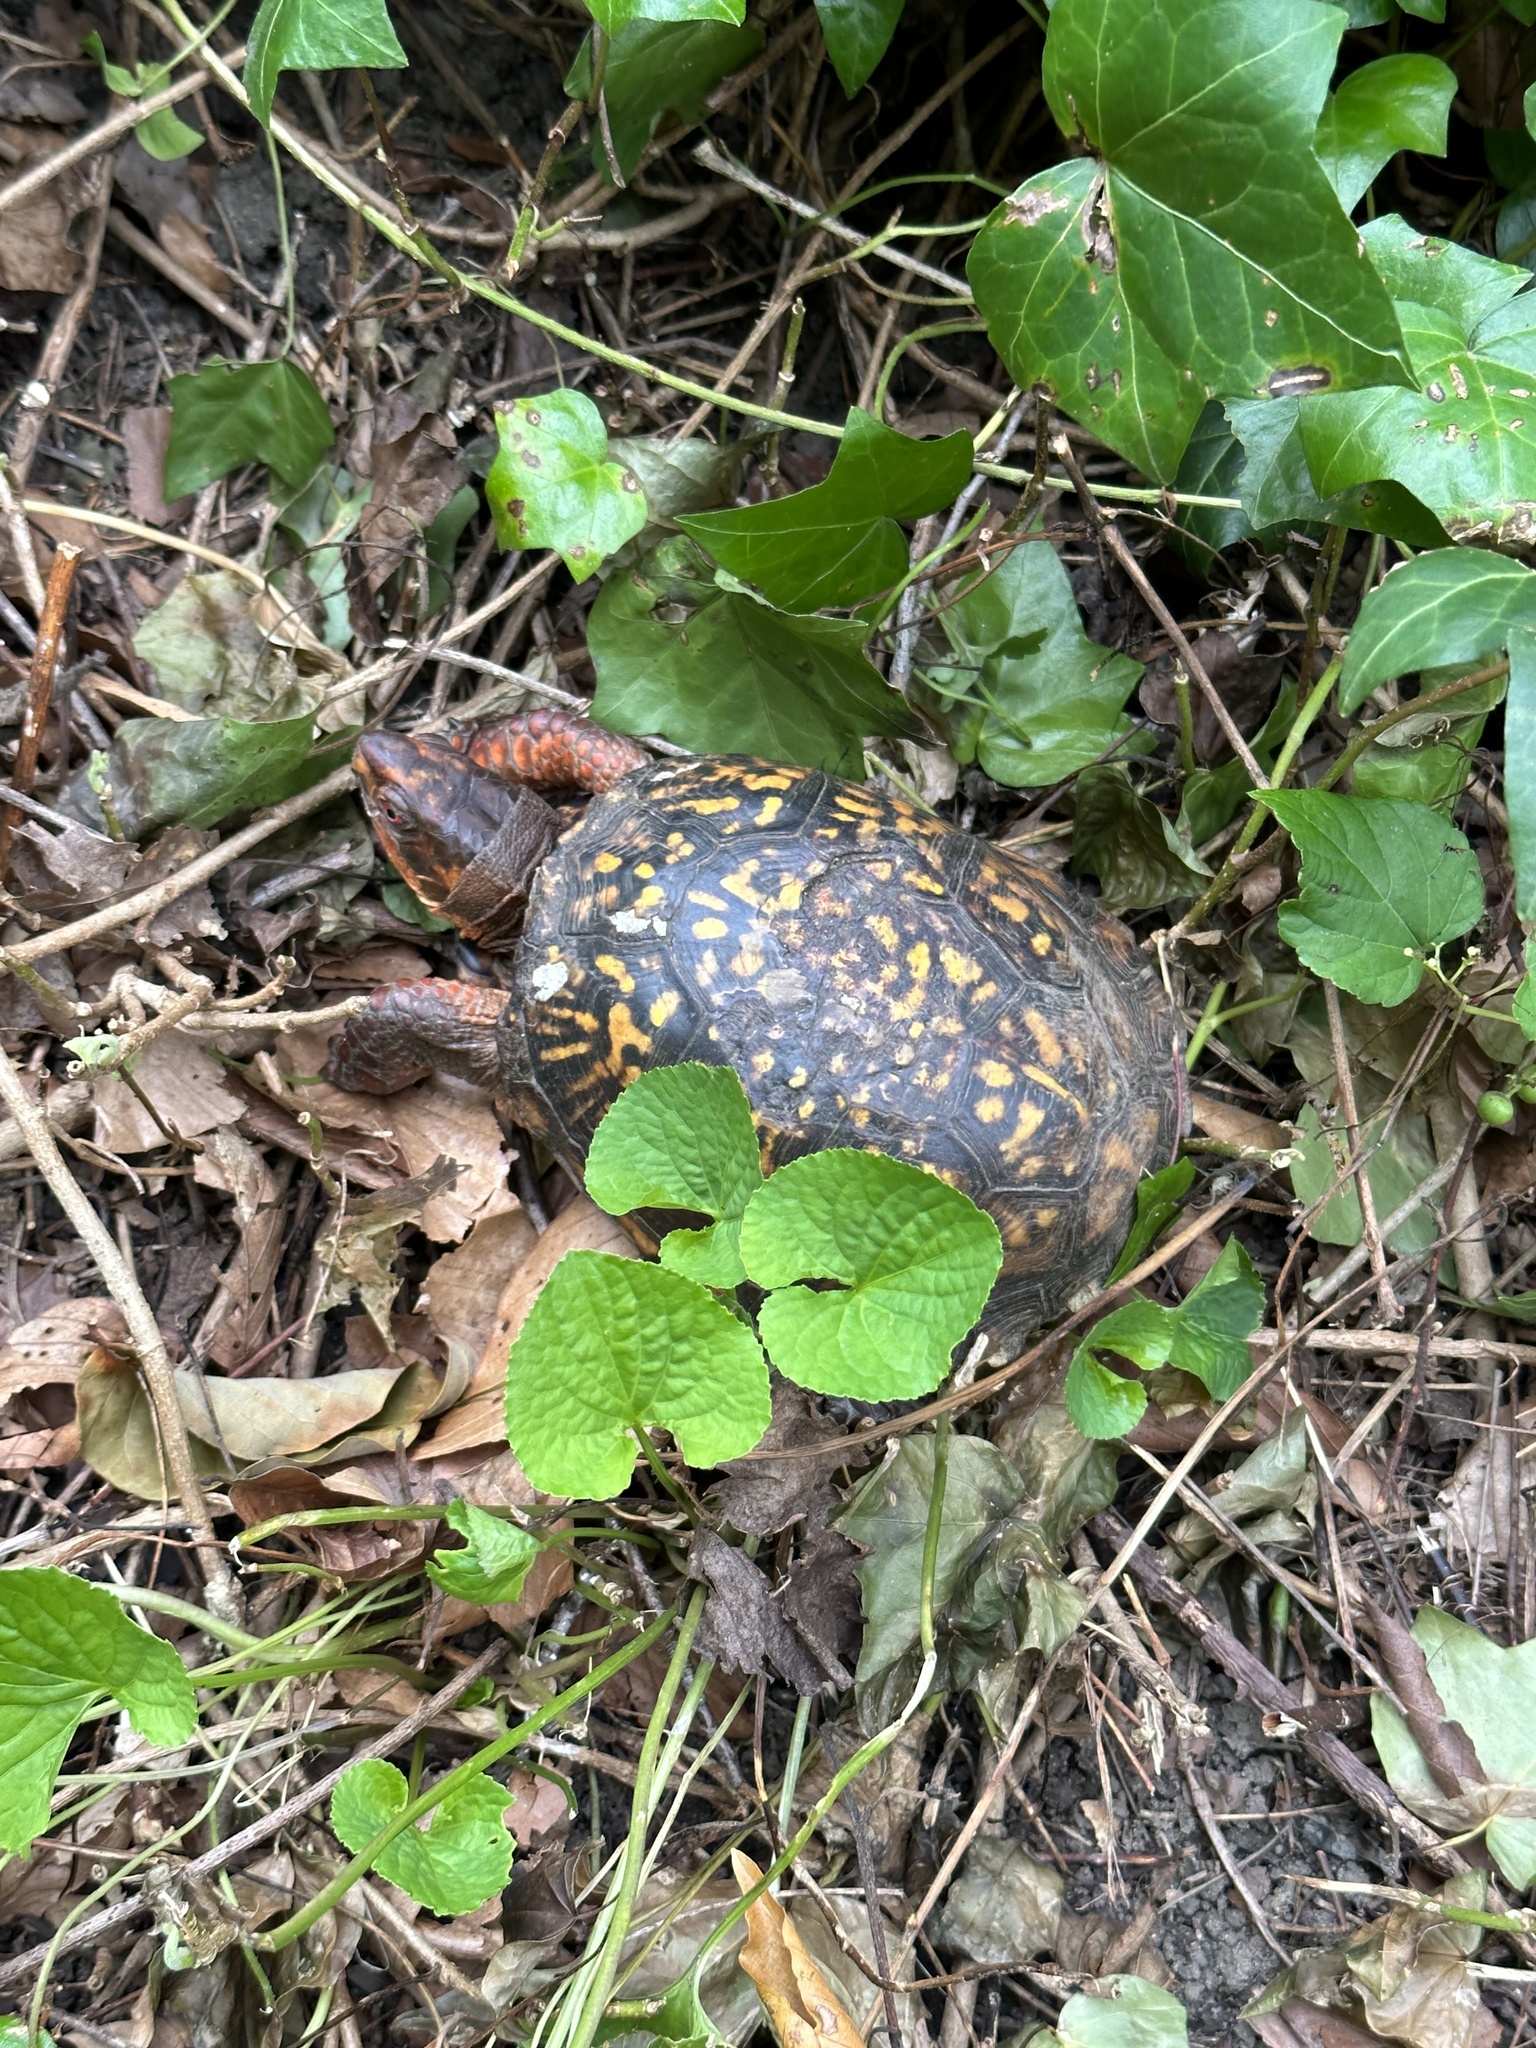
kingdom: Animalia
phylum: Chordata
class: Testudines
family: Emydidae
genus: Terrapene
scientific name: Terrapene carolina
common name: Common box turtle
